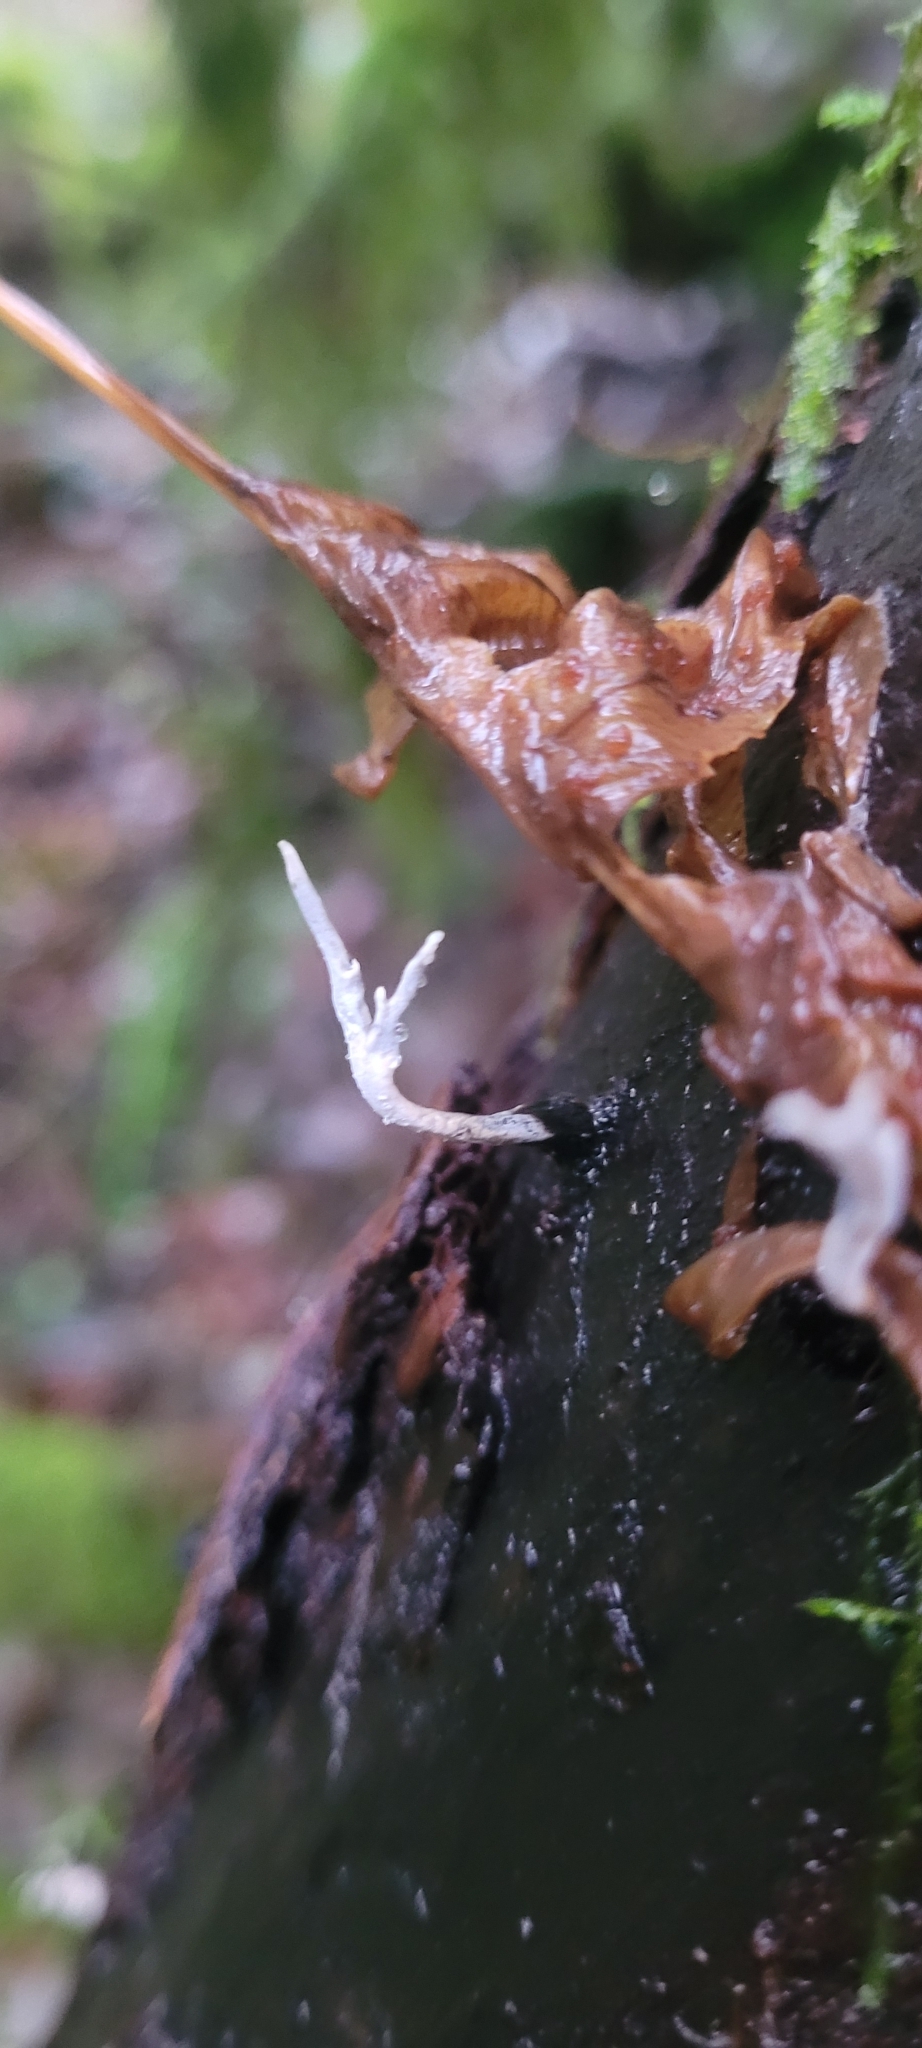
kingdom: Fungi
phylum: Ascomycota
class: Sordariomycetes
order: Xylariales
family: Xylariaceae
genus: Xylaria
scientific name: Xylaria hypoxylon
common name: Candle-snuff fungus
